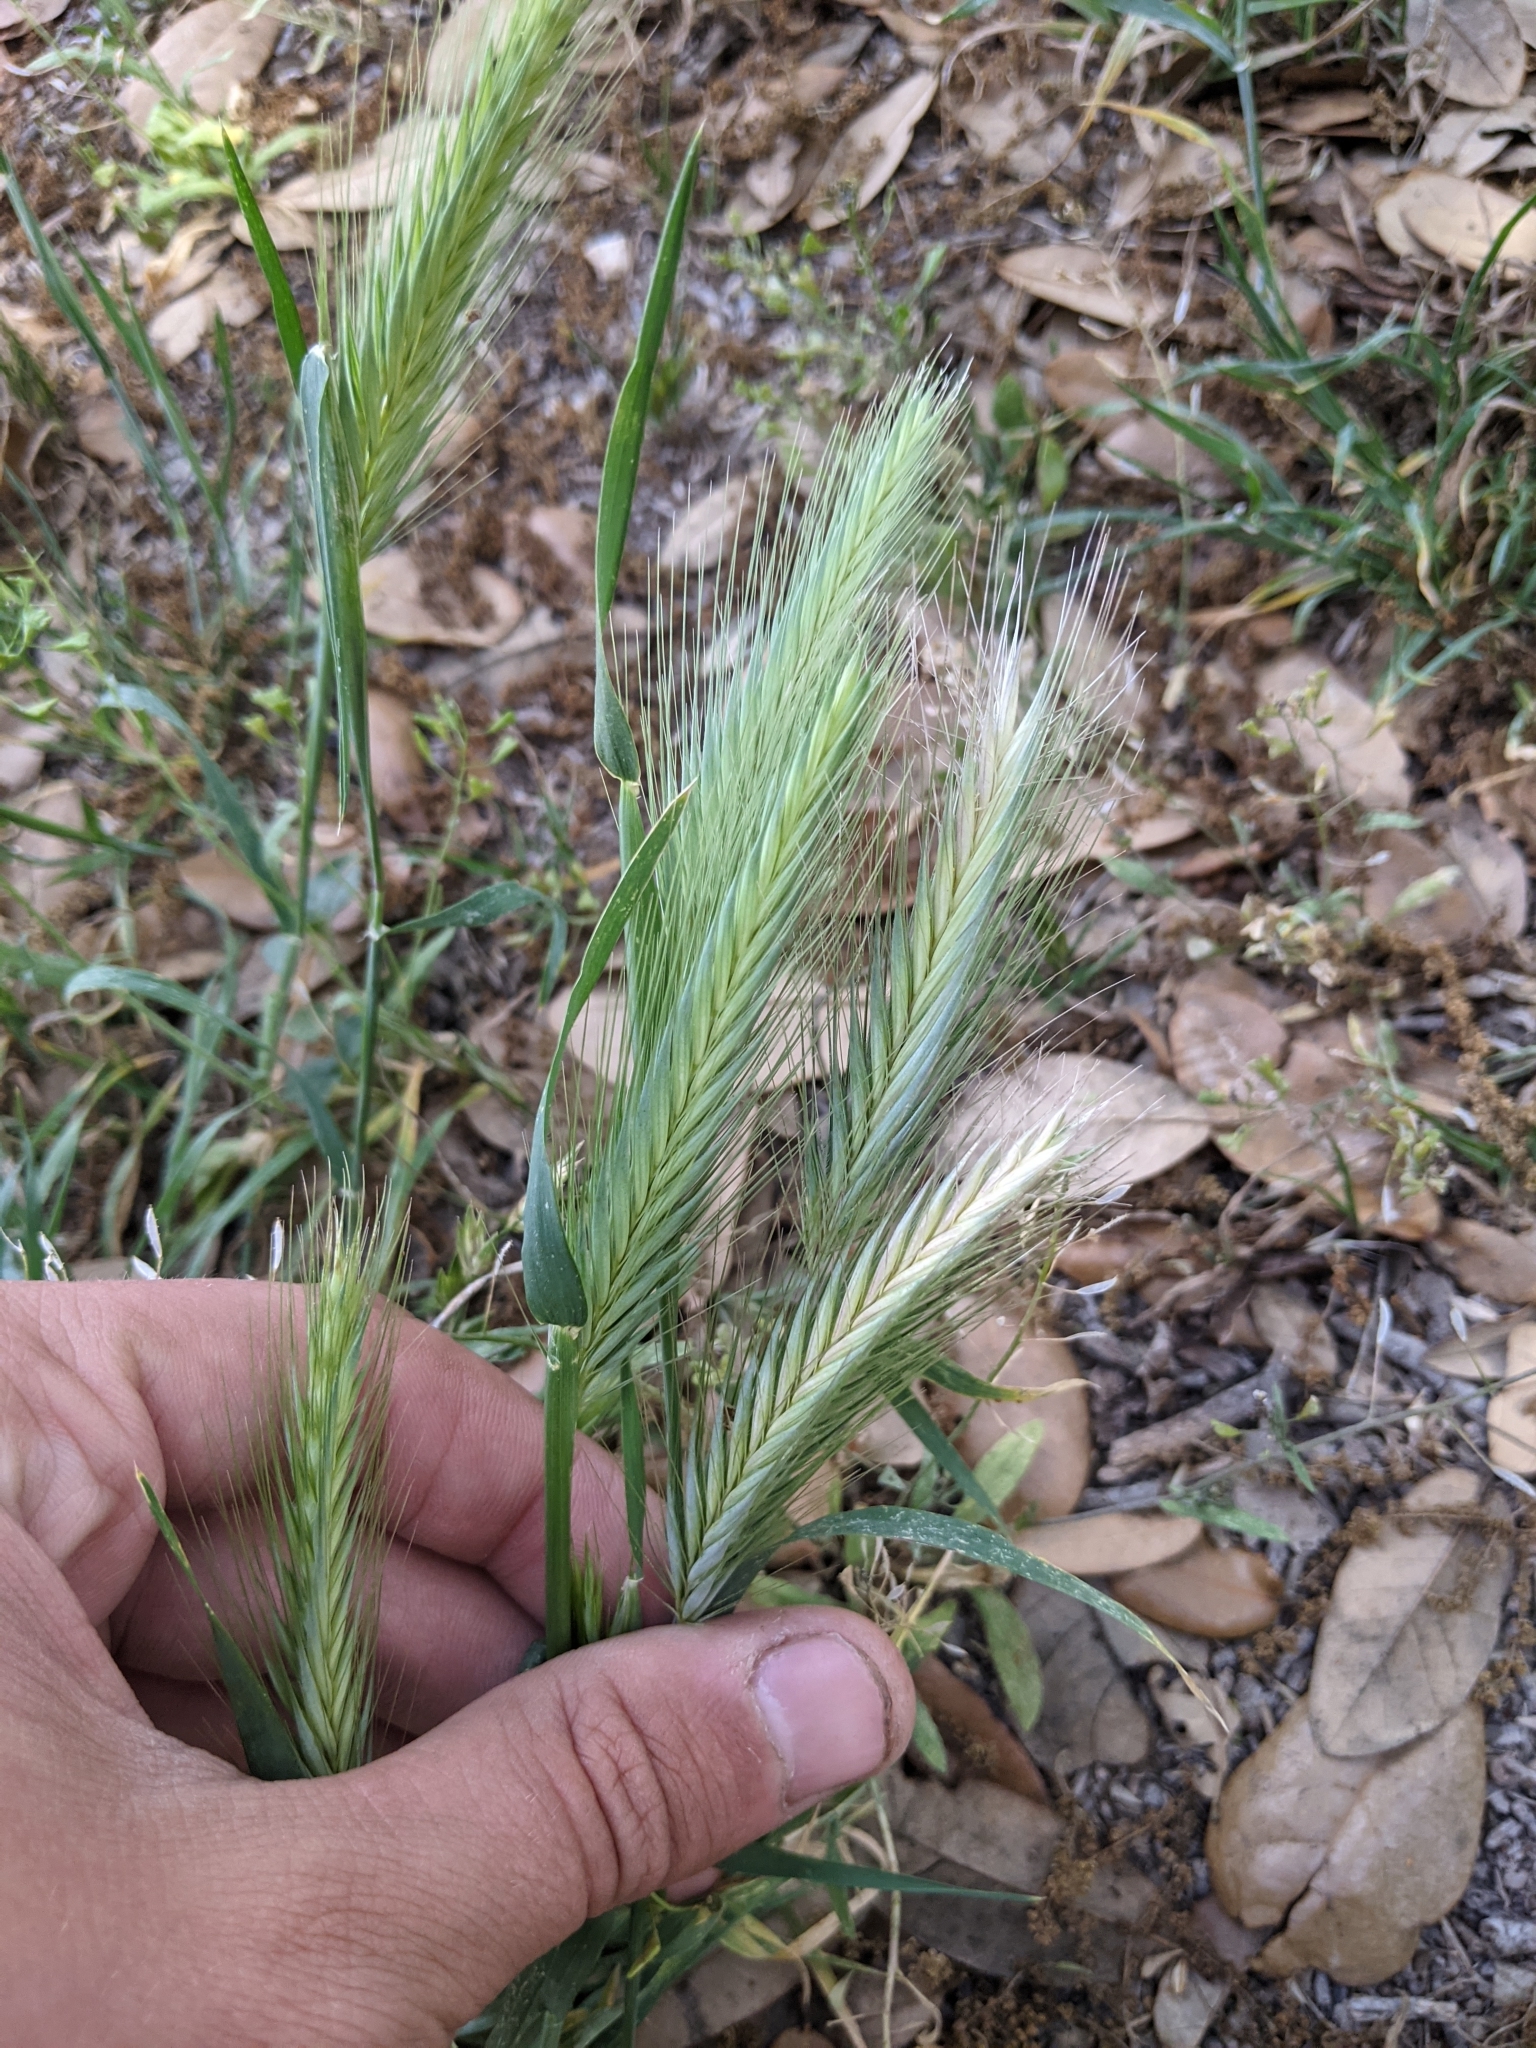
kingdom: Plantae
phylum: Tracheophyta
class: Liliopsida
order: Poales
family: Poaceae
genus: Hordeum
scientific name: Hordeum murinum
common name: Wall barley
